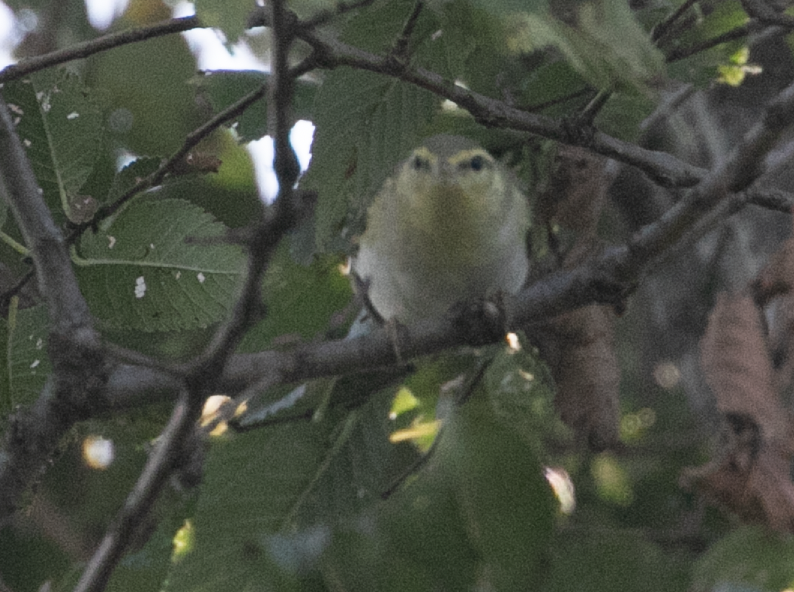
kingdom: Animalia
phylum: Chordata
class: Aves
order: Passeriformes
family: Phylloscopidae
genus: Phylloscopus
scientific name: Phylloscopus sibillatrix
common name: Wood warbler
